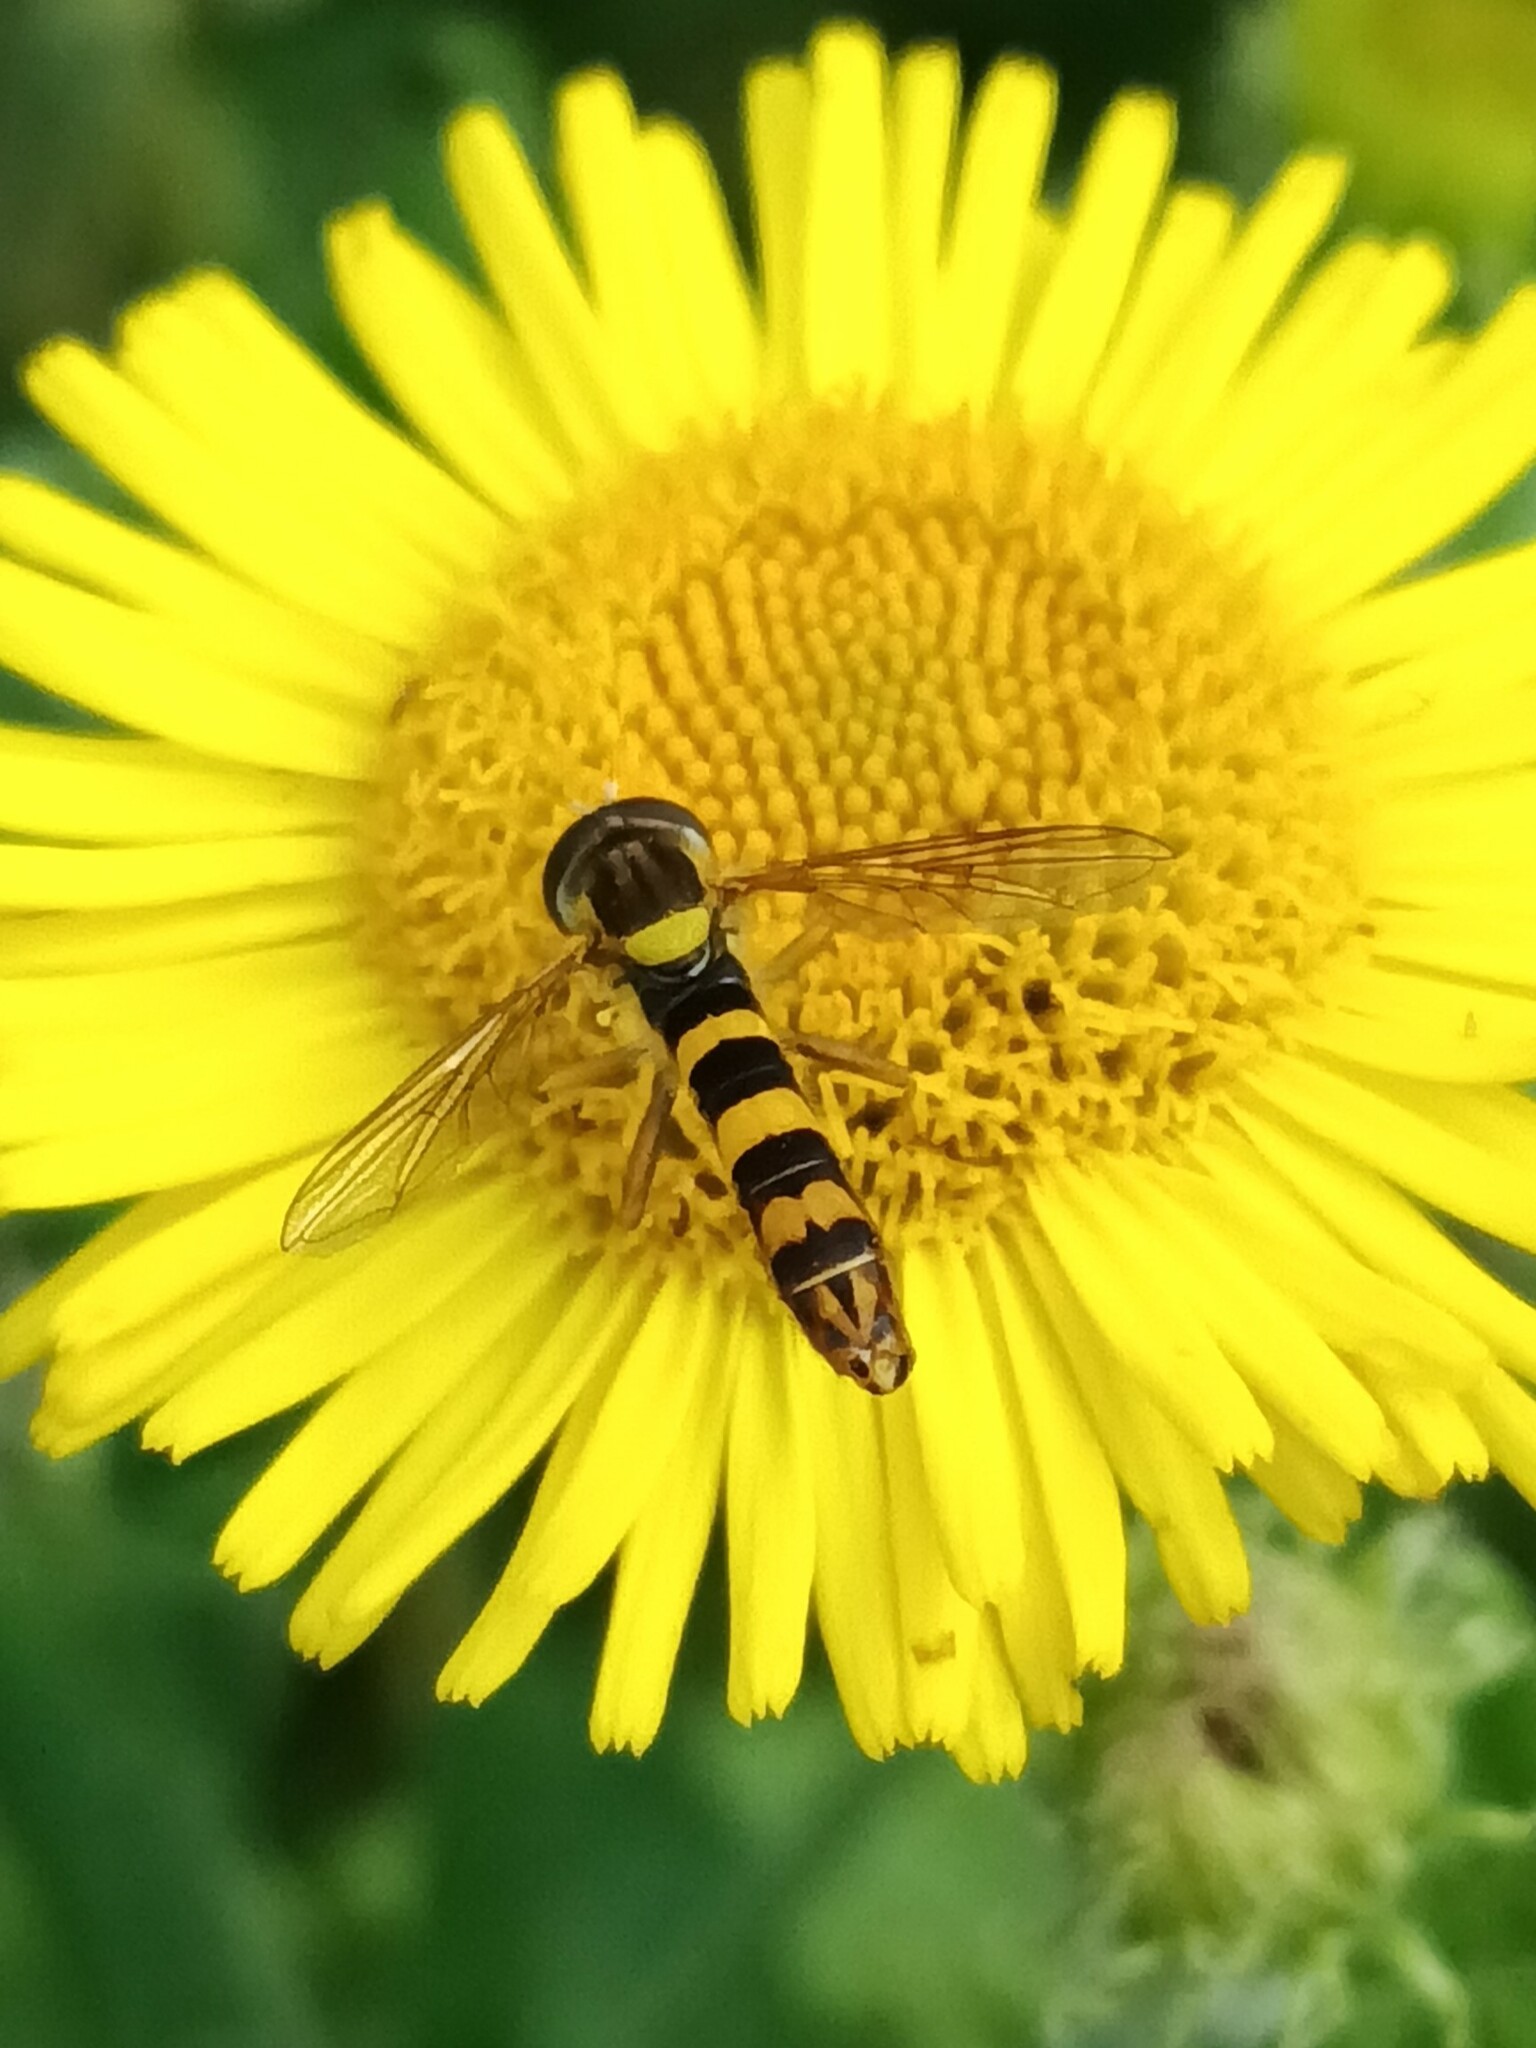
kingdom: Animalia
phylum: Arthropoda
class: Insecta
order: Diptera
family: Syrphidae
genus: Sphaerophoria
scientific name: Sphaerophoria scripta
